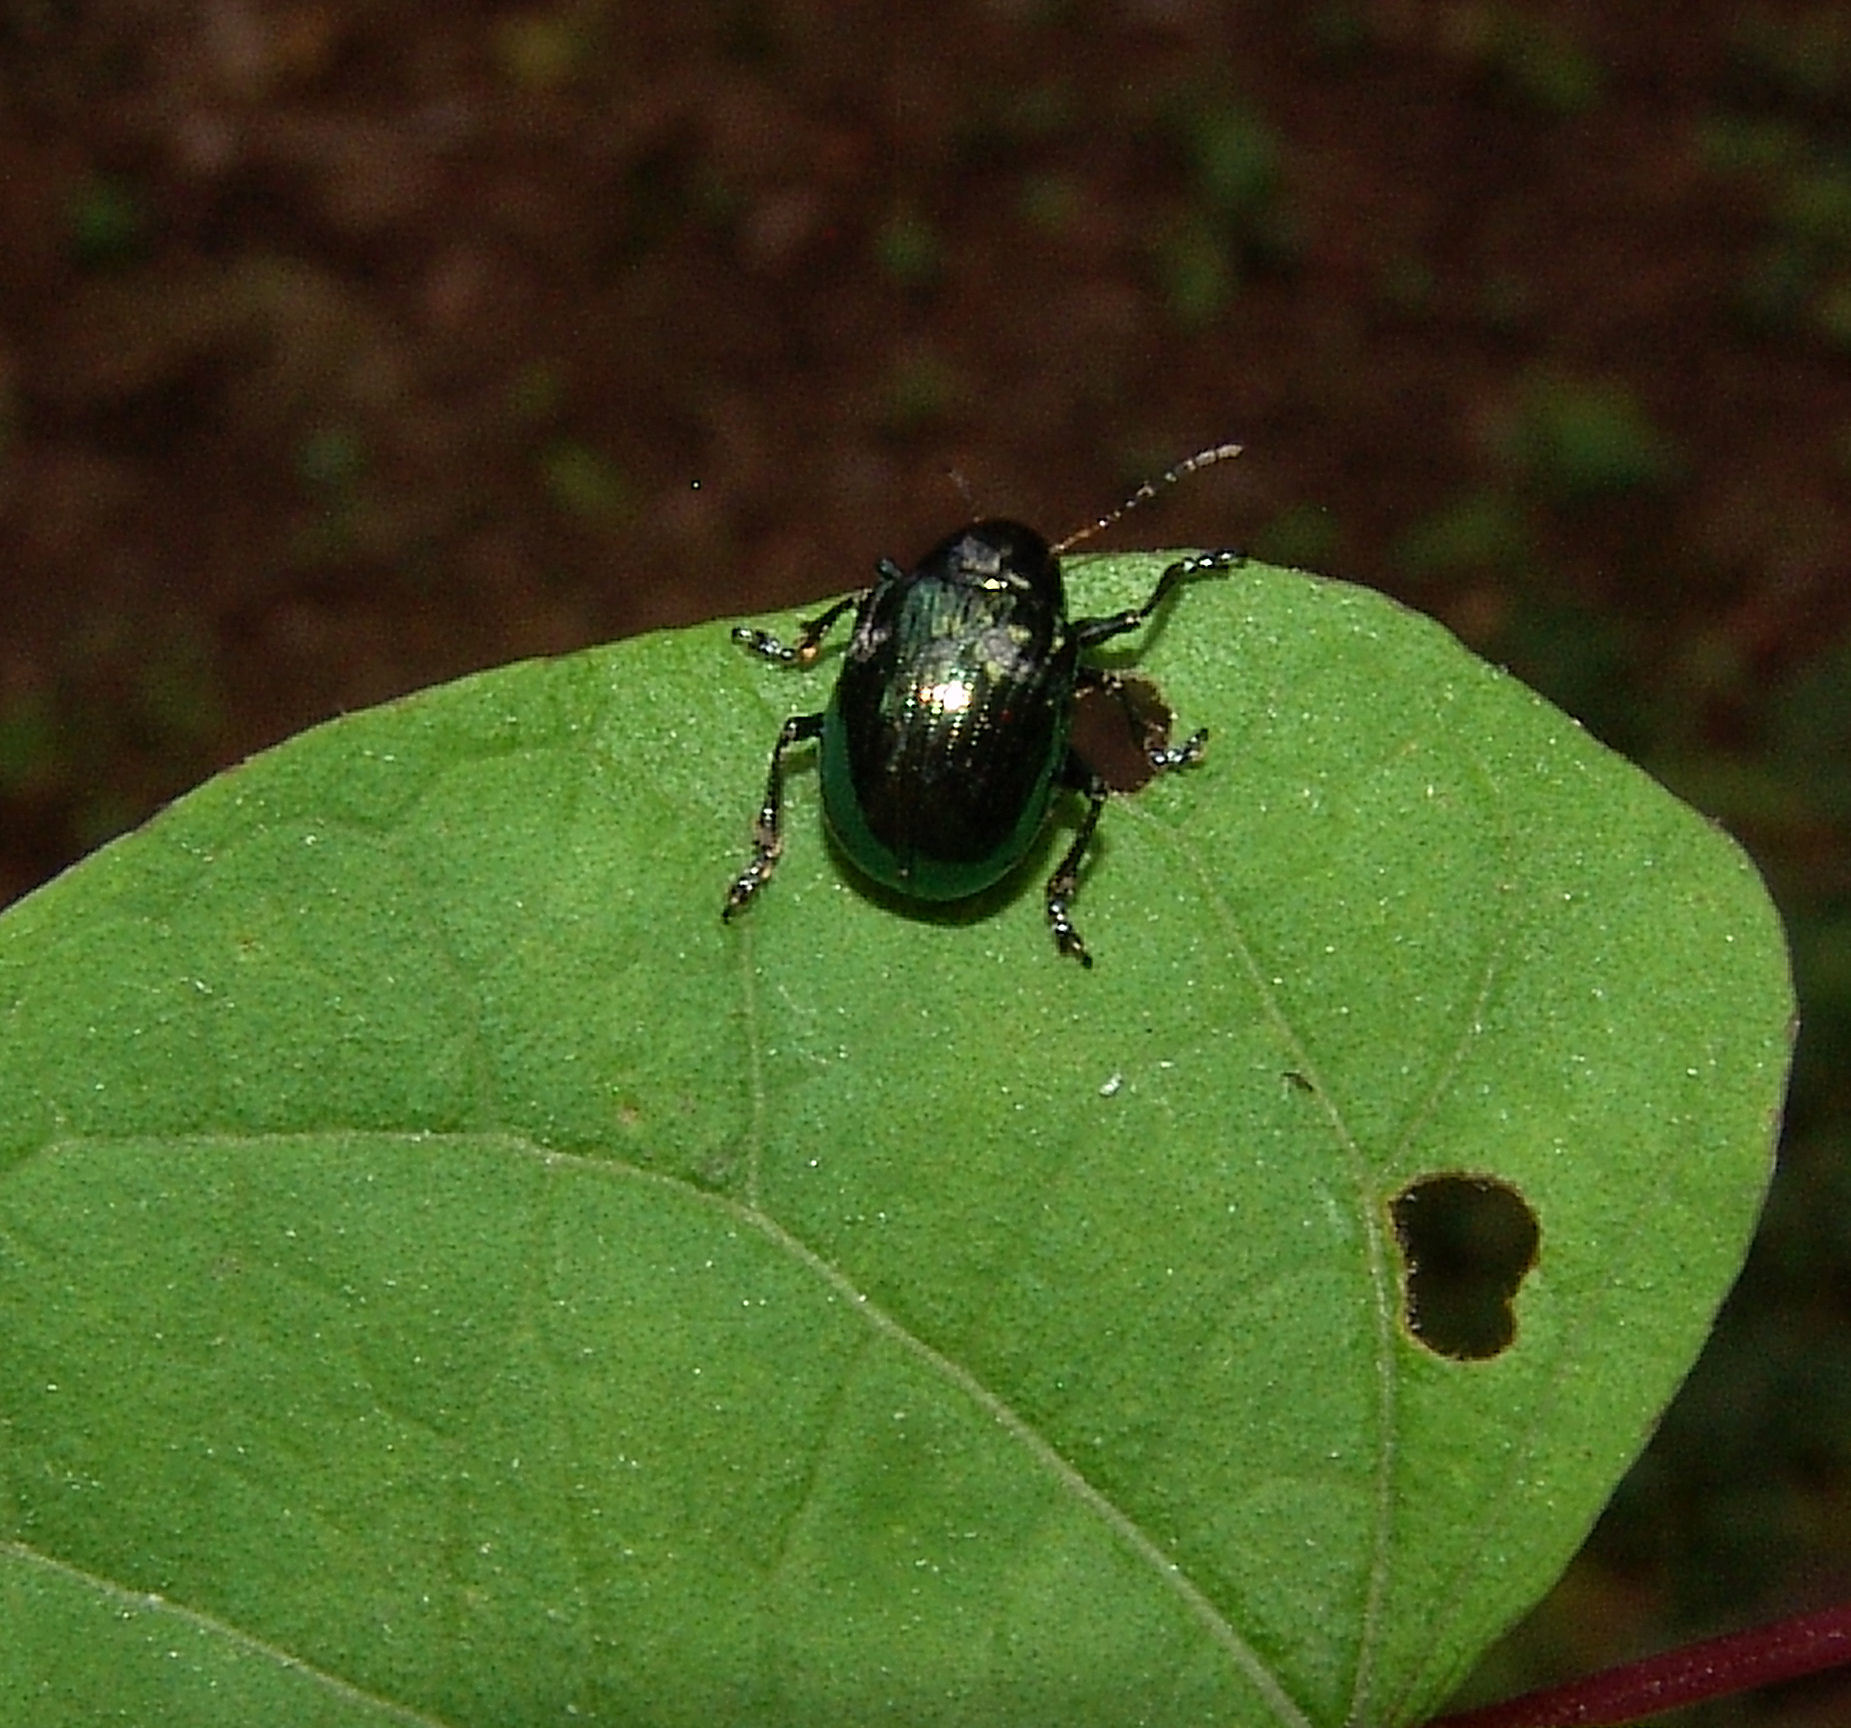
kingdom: Animalia
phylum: Arthropoda
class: Insecta
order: Coleoptera
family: Chrysomelidae
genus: Chrysochus
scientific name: Chrysochus auratus
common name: Dogbane leaf beetle
